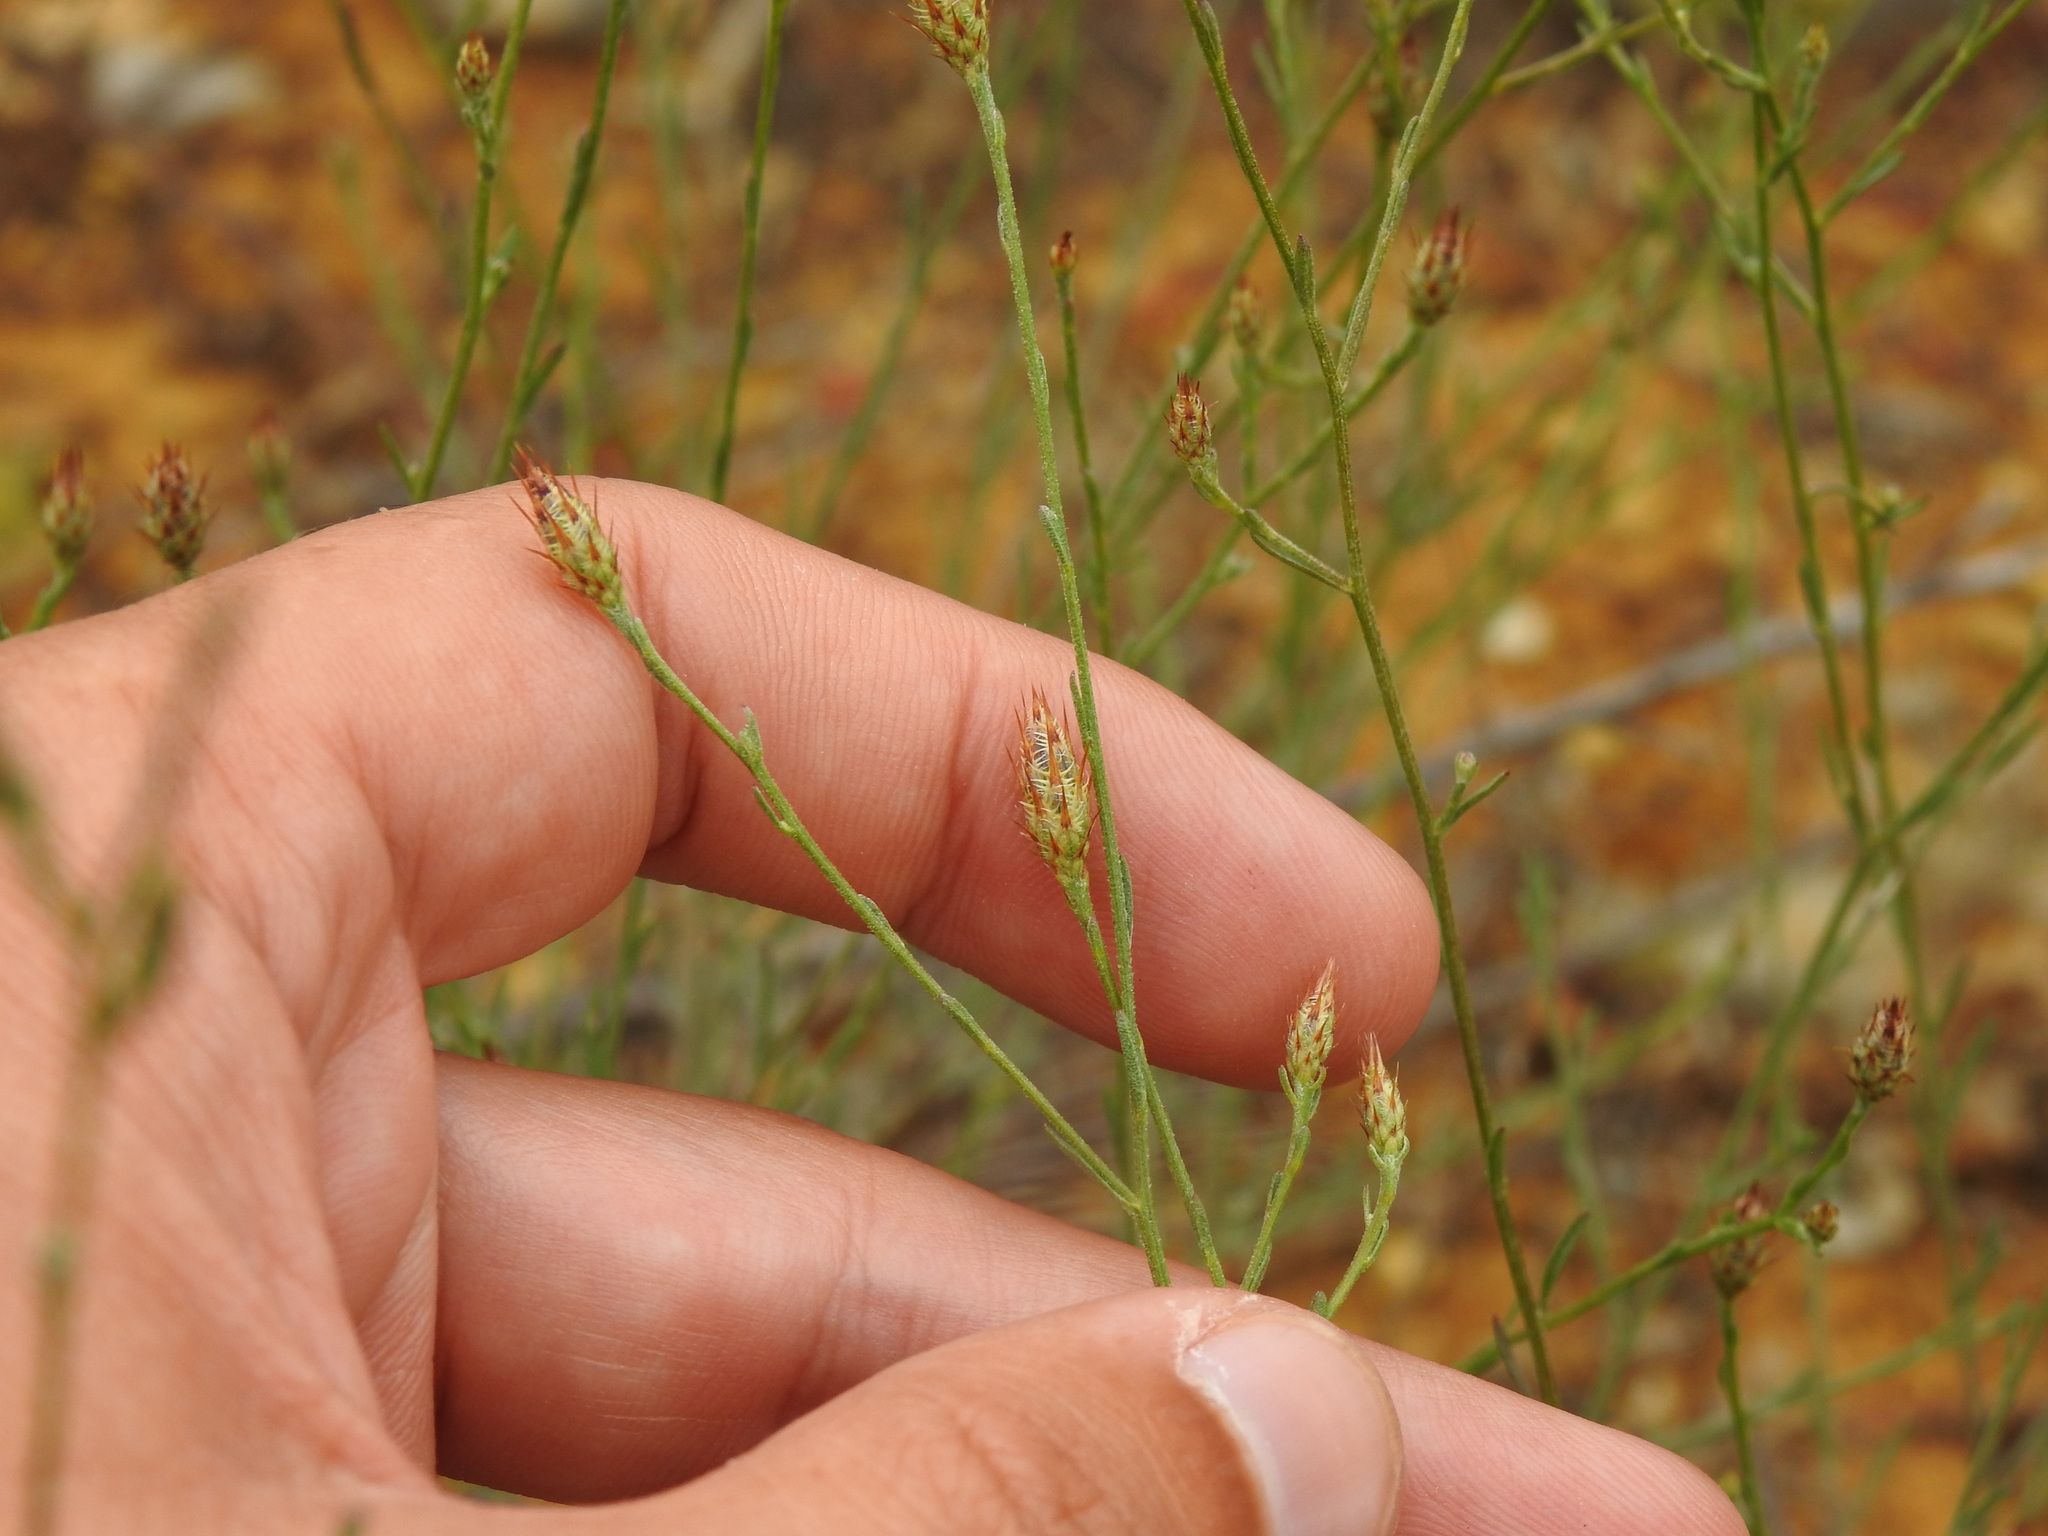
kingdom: Plantae
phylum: Tracheophyta
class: Magnoliopsida
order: Asterales
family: Asteraceae
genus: Centaurea
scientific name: Centaurea cordubensis
